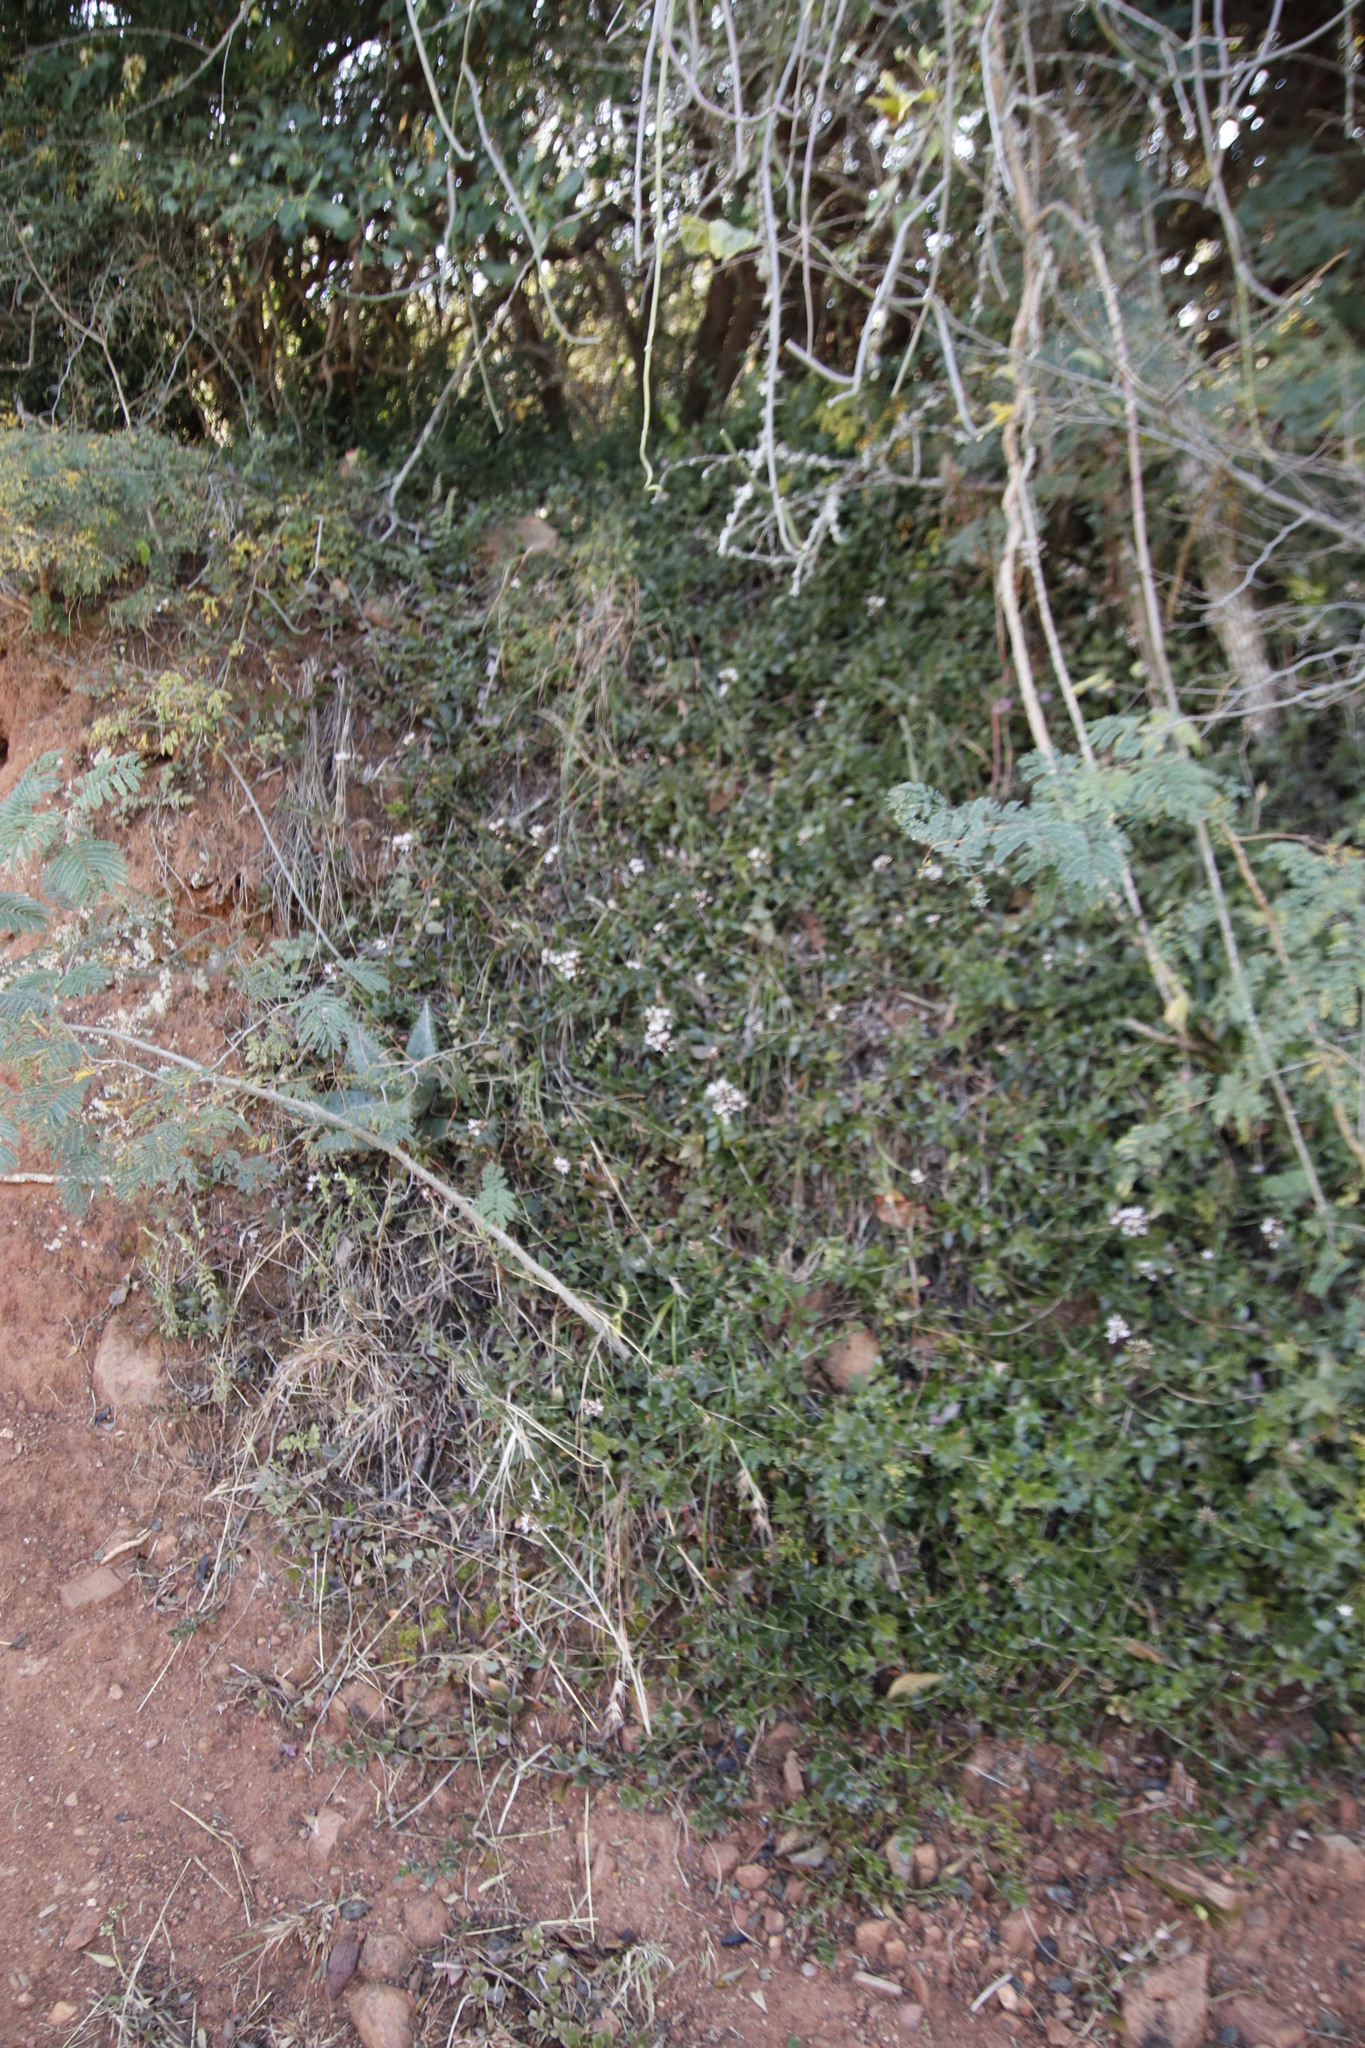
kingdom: Plantae
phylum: Tracheophyta
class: Magnoliopsida
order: Asterales
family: Asteraceae
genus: Athrixia
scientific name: Athrixia elata
